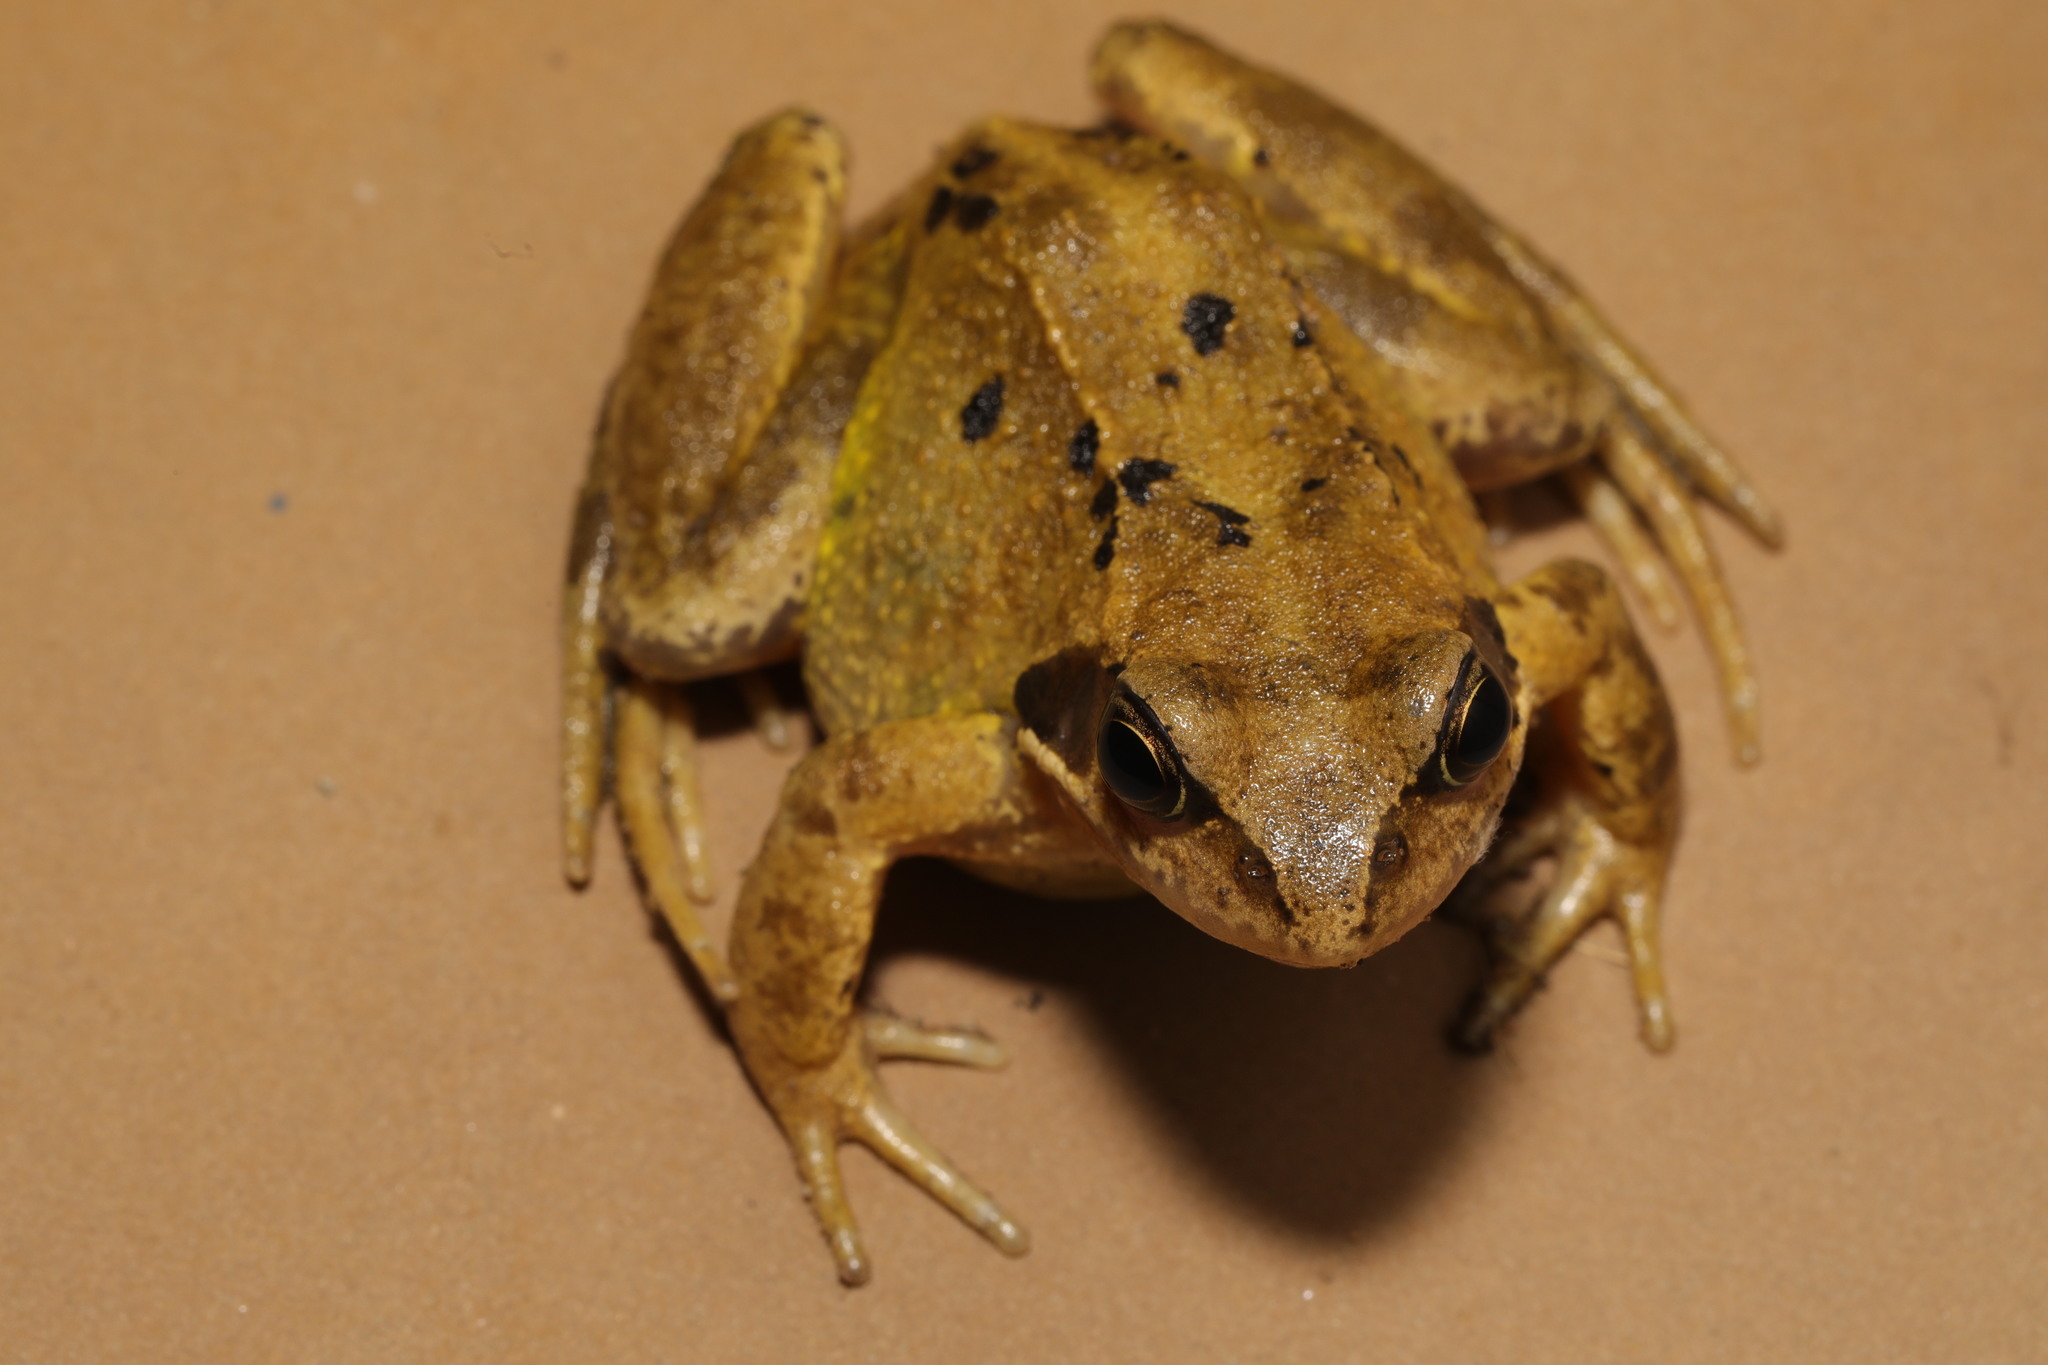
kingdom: Animalia
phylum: Chordata
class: Amphibia
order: Anura
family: Ranidae
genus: Rana
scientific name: Rana temporaria
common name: Common frog
